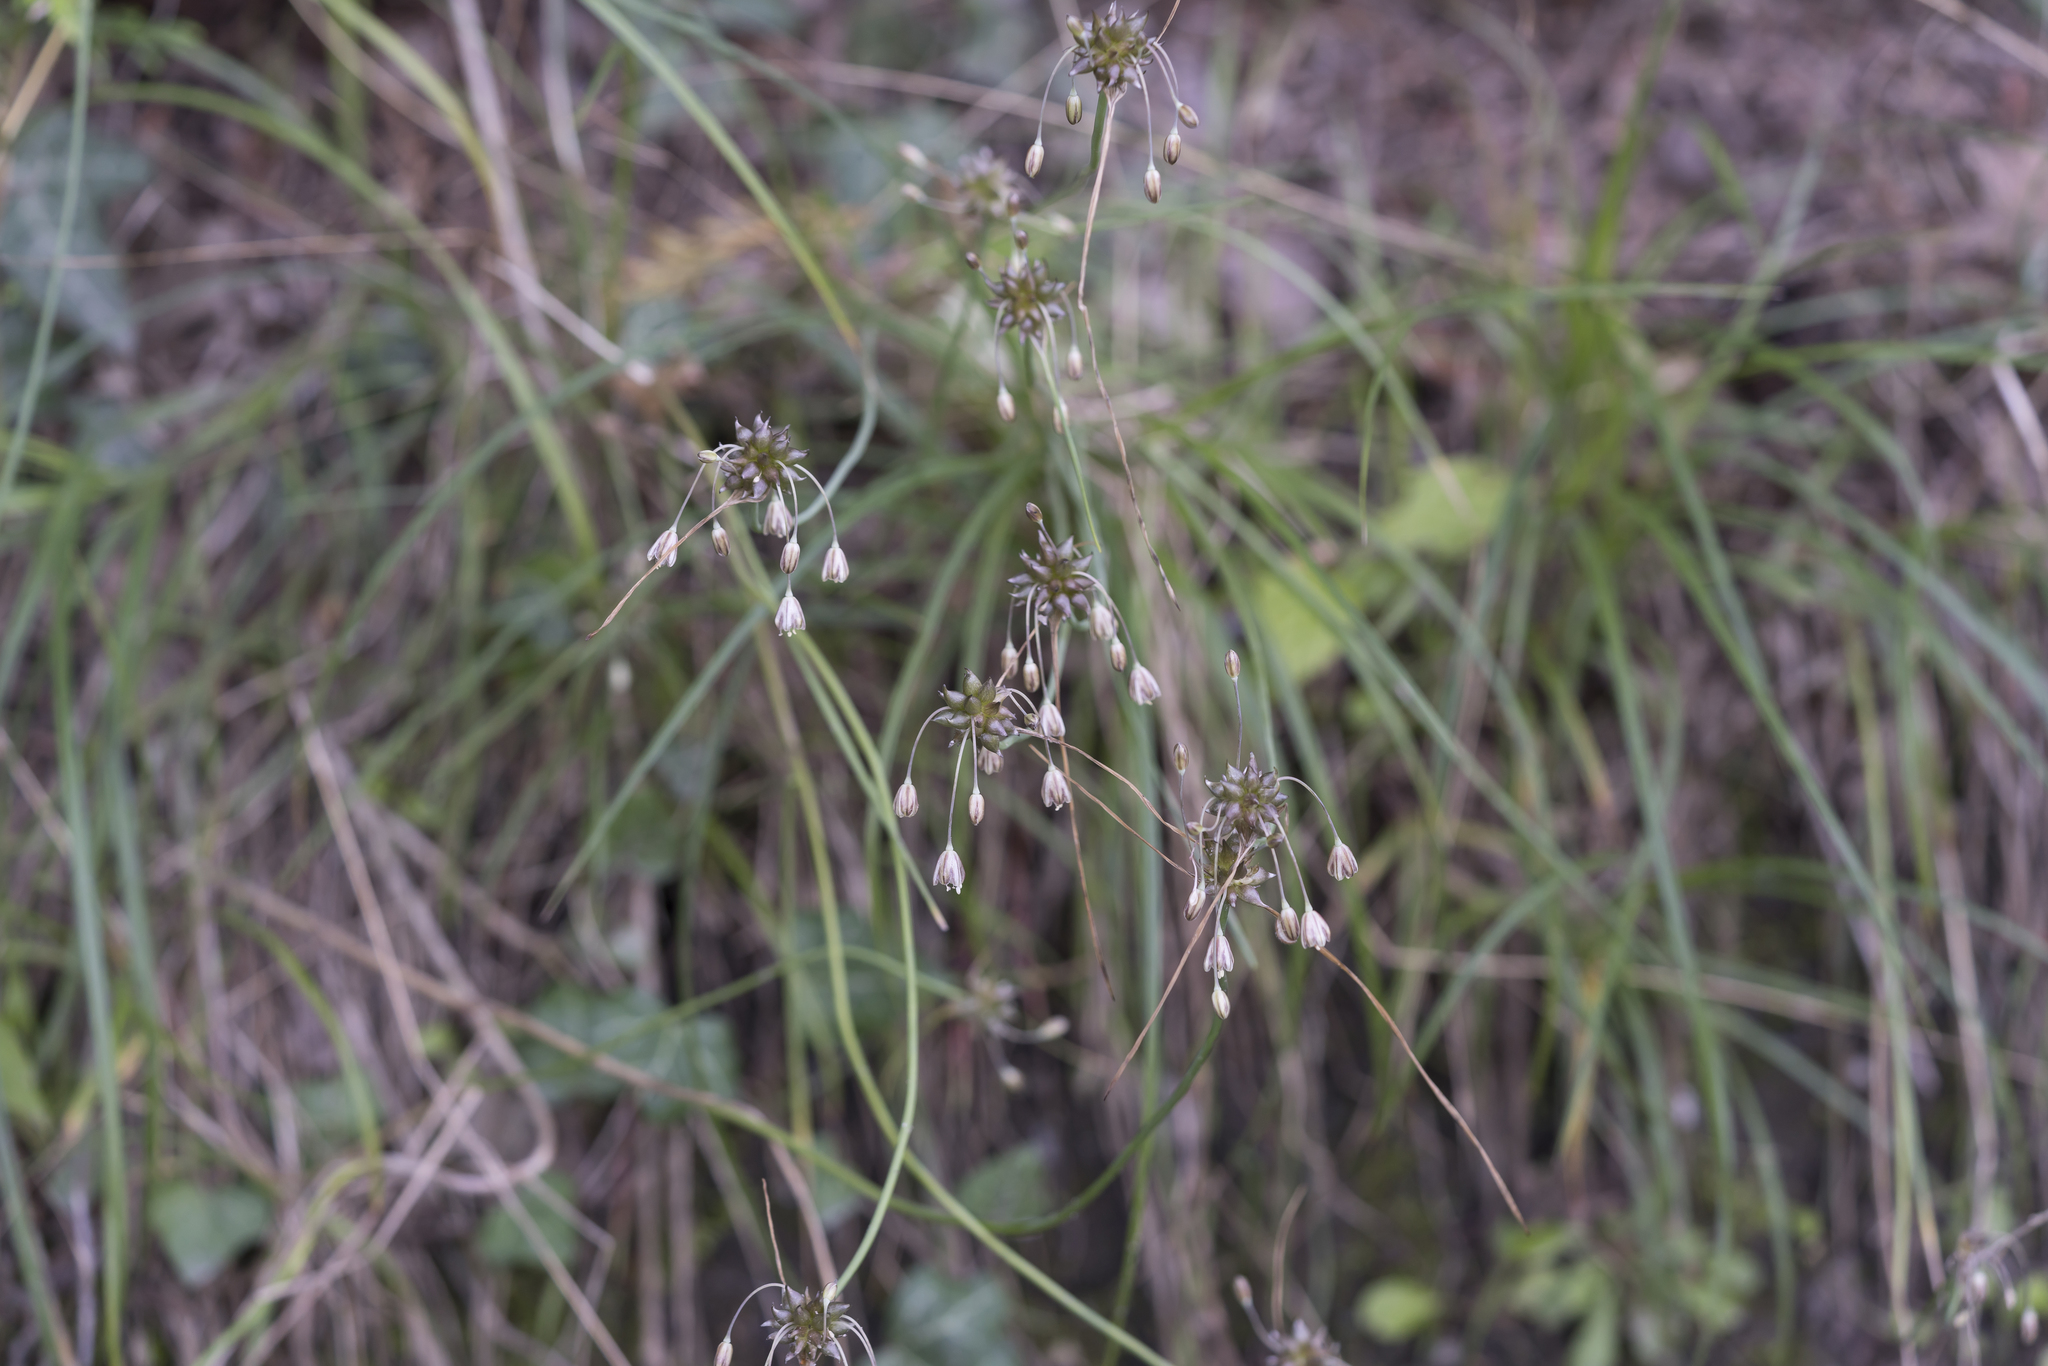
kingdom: Plantae
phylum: Tracheophyta
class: Liliopsida
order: Asparagales
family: Amaryllidaceae
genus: Allium
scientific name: Allium oleraceum
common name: Field garlic
